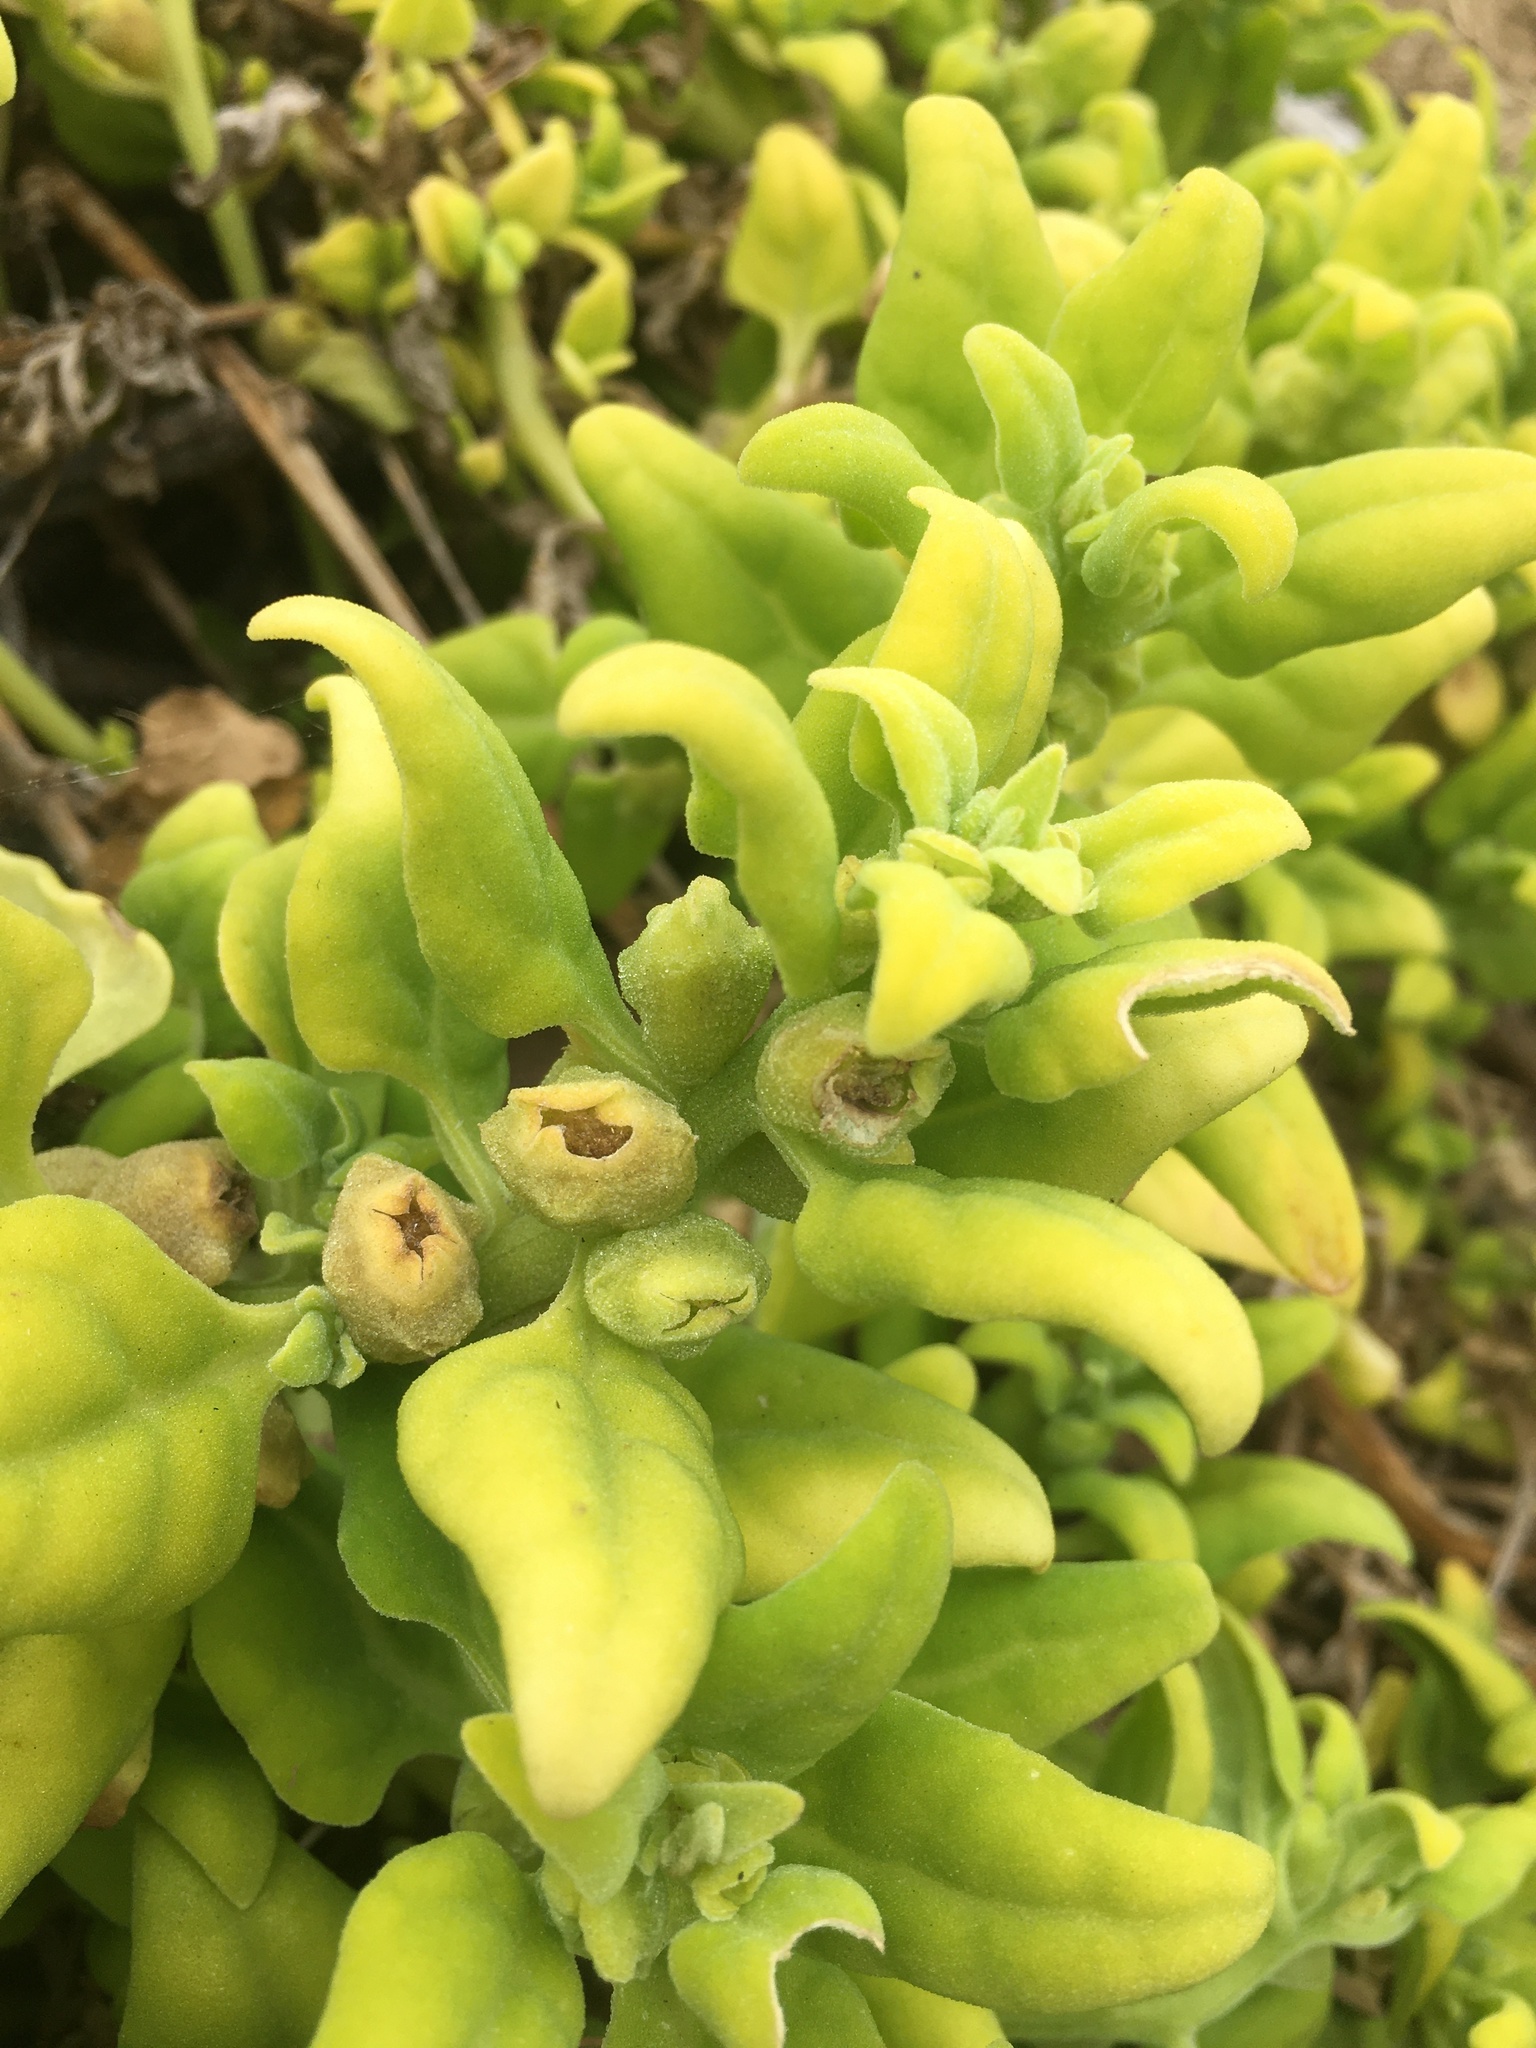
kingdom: Plantae
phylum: Tracheophyta
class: Magnoliopsida
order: Caryophyllales
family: Aizoaceae
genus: Tetragonia
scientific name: Tetragonia tetragonoides
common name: New zealand-spinach
